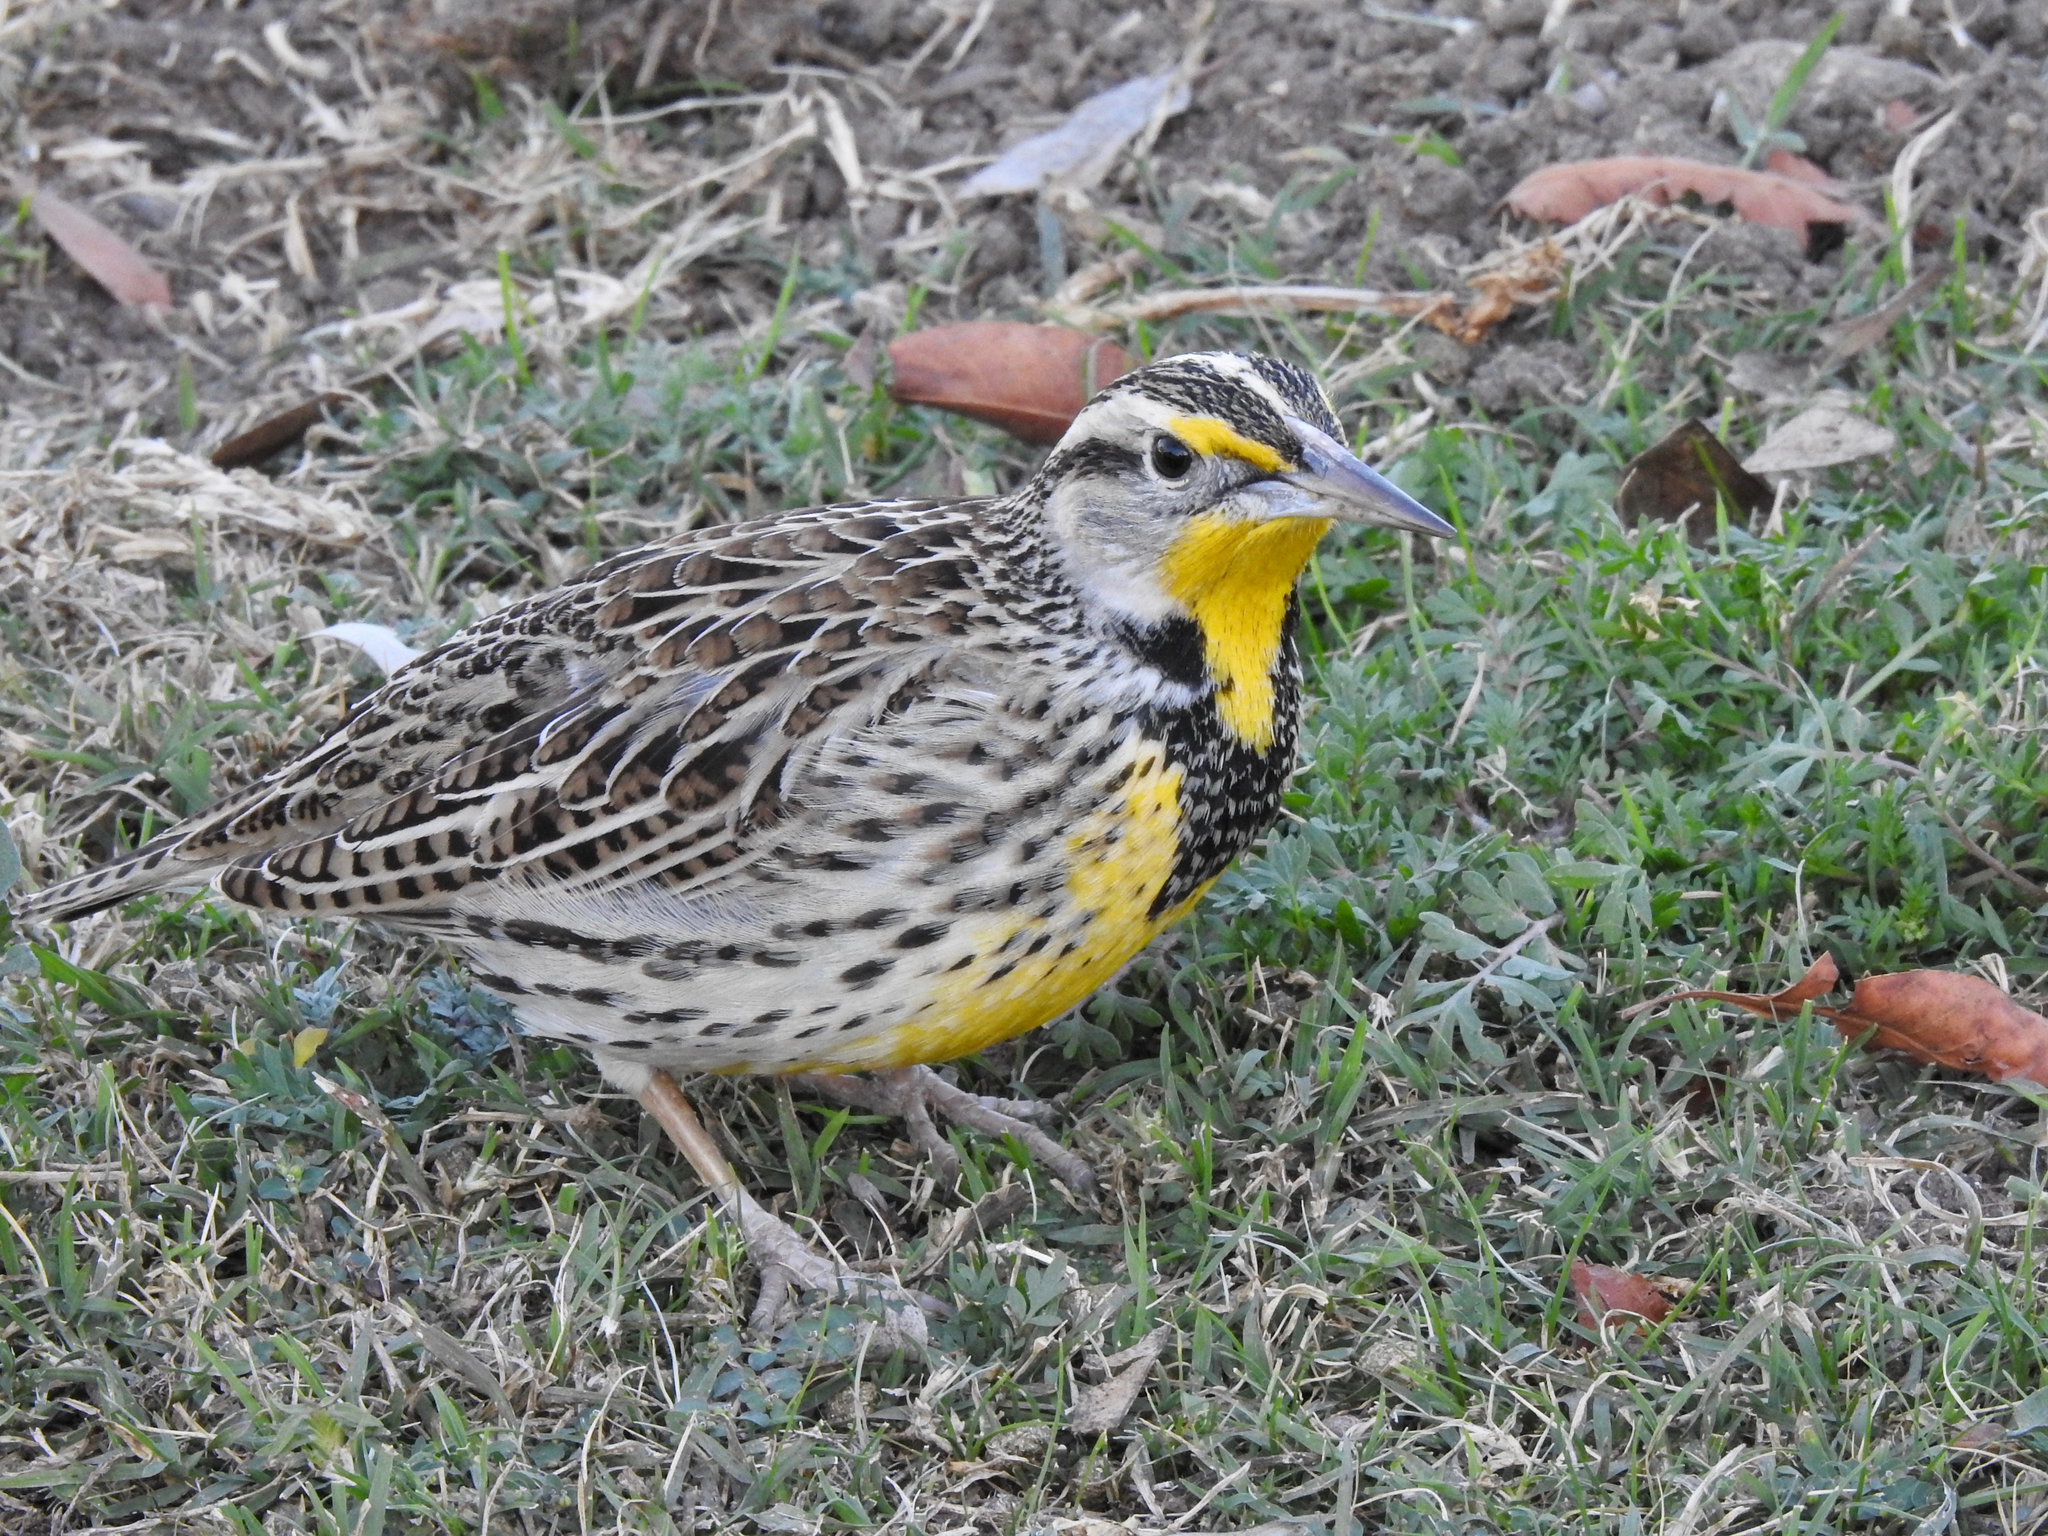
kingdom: Animalia
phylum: Chordata
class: Aves
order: Passeriformes
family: Icteridae
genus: Sturnella
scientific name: Sturnella neglecta
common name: Western meadowlark
